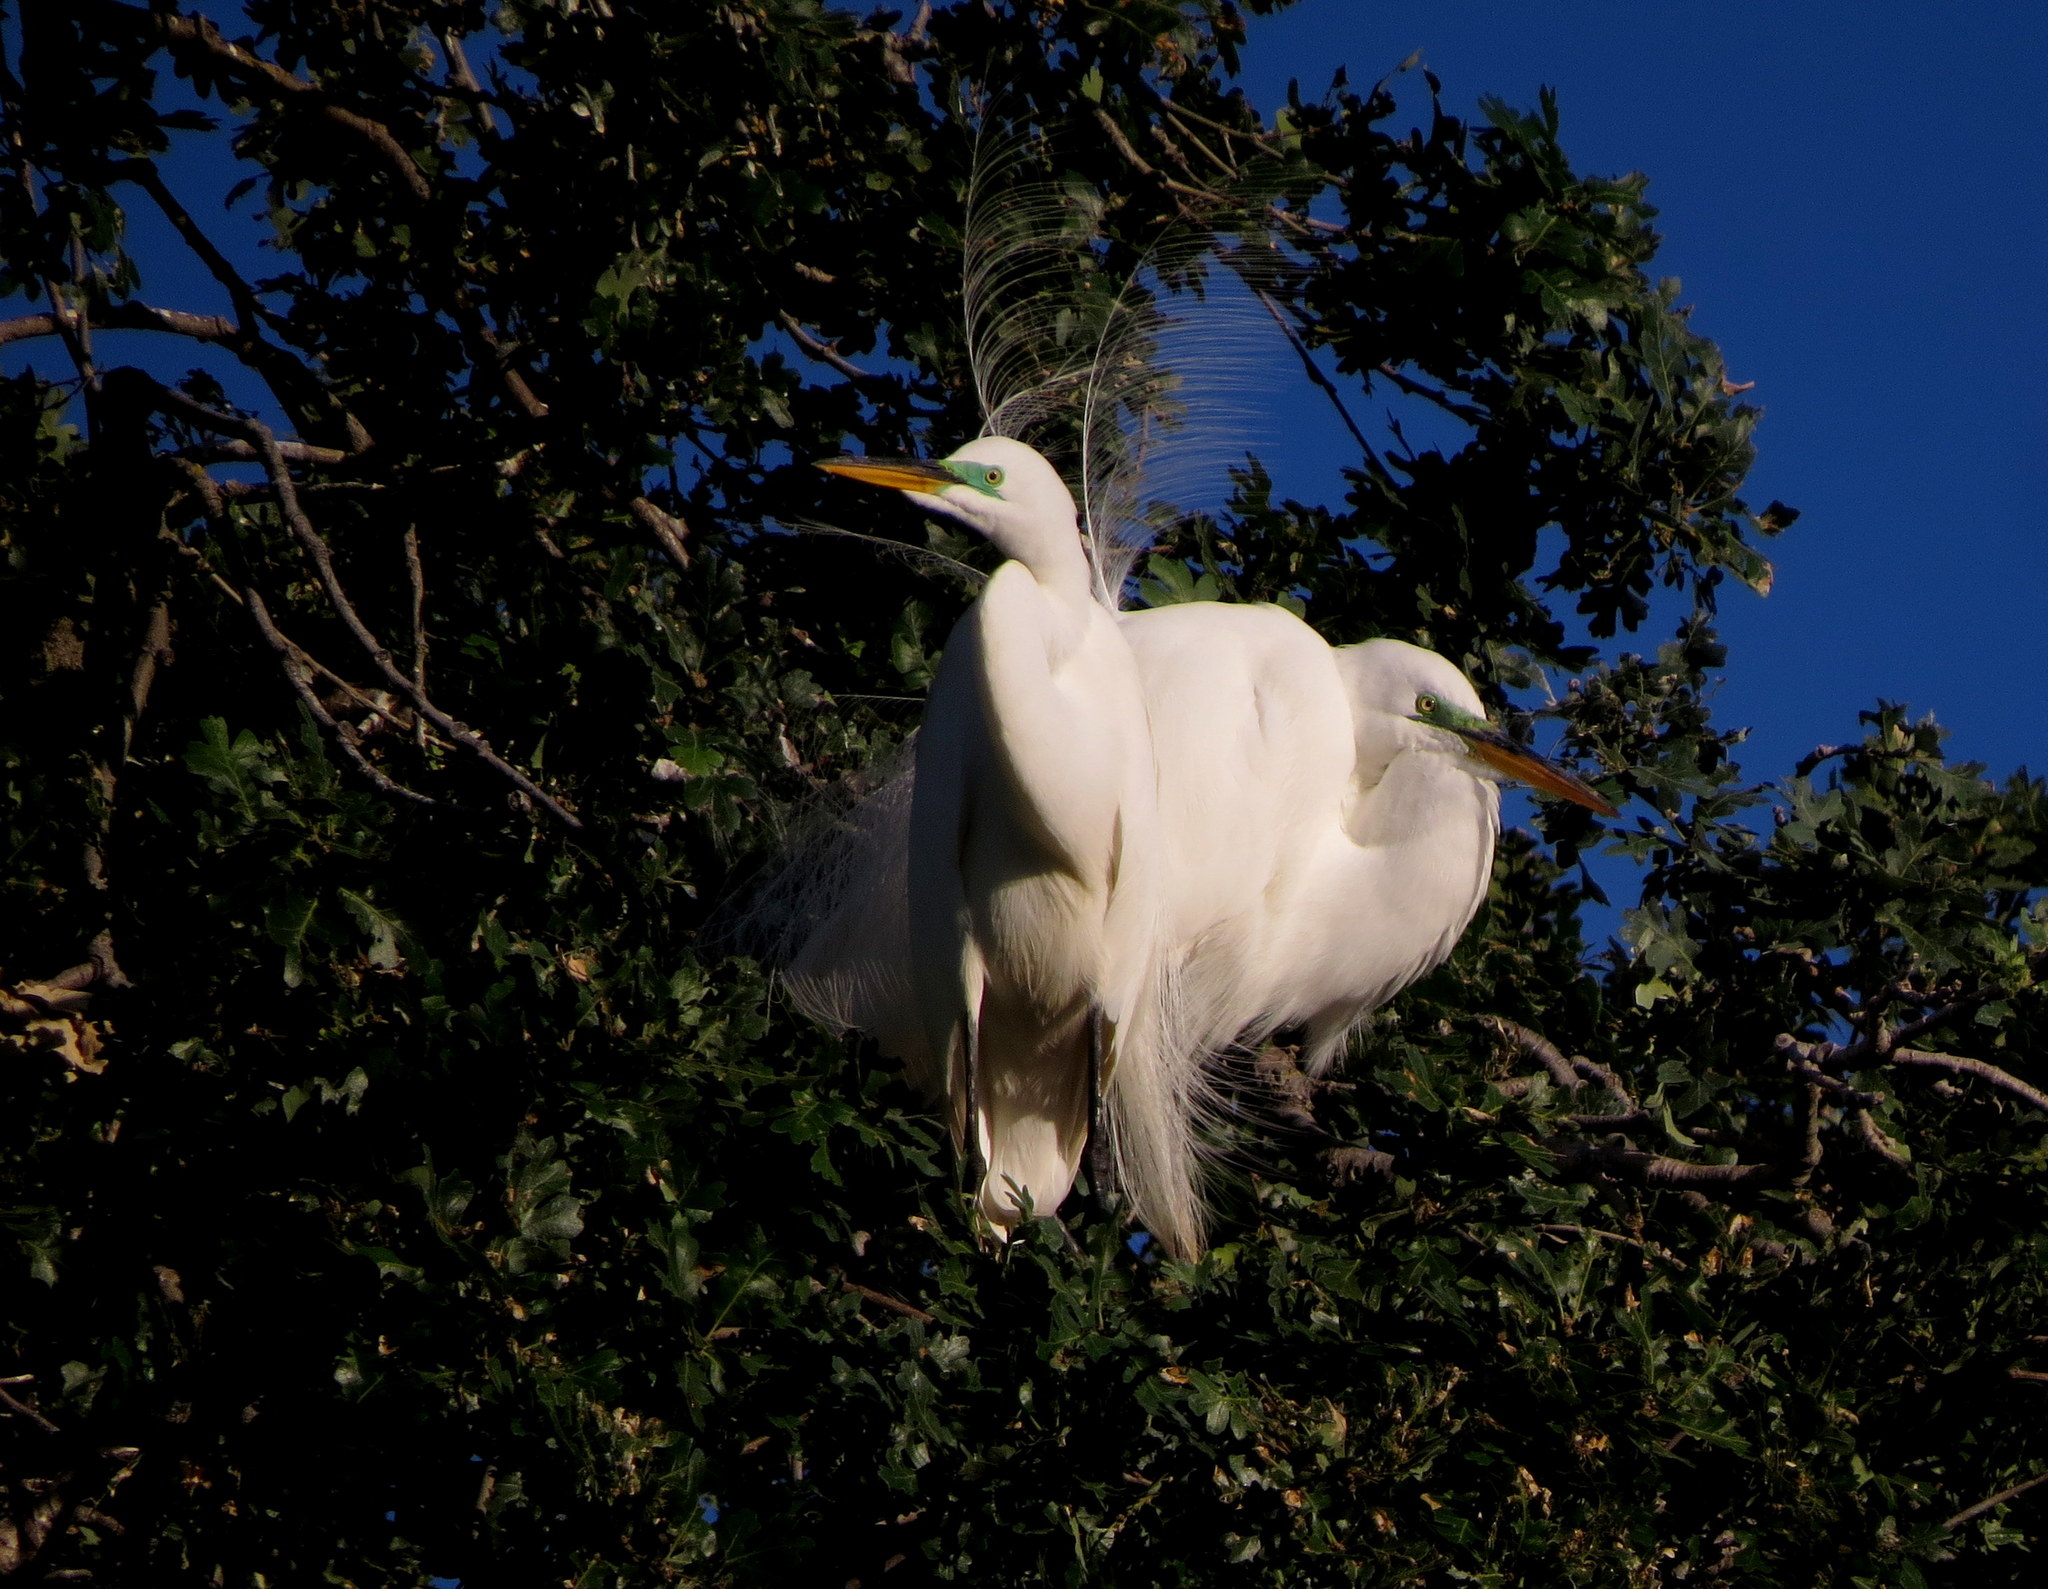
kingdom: Animalia
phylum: Chordata
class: Aves
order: Pelecaniformes
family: Ardeidae
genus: Ardea
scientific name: Ardea alba
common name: Great egret
